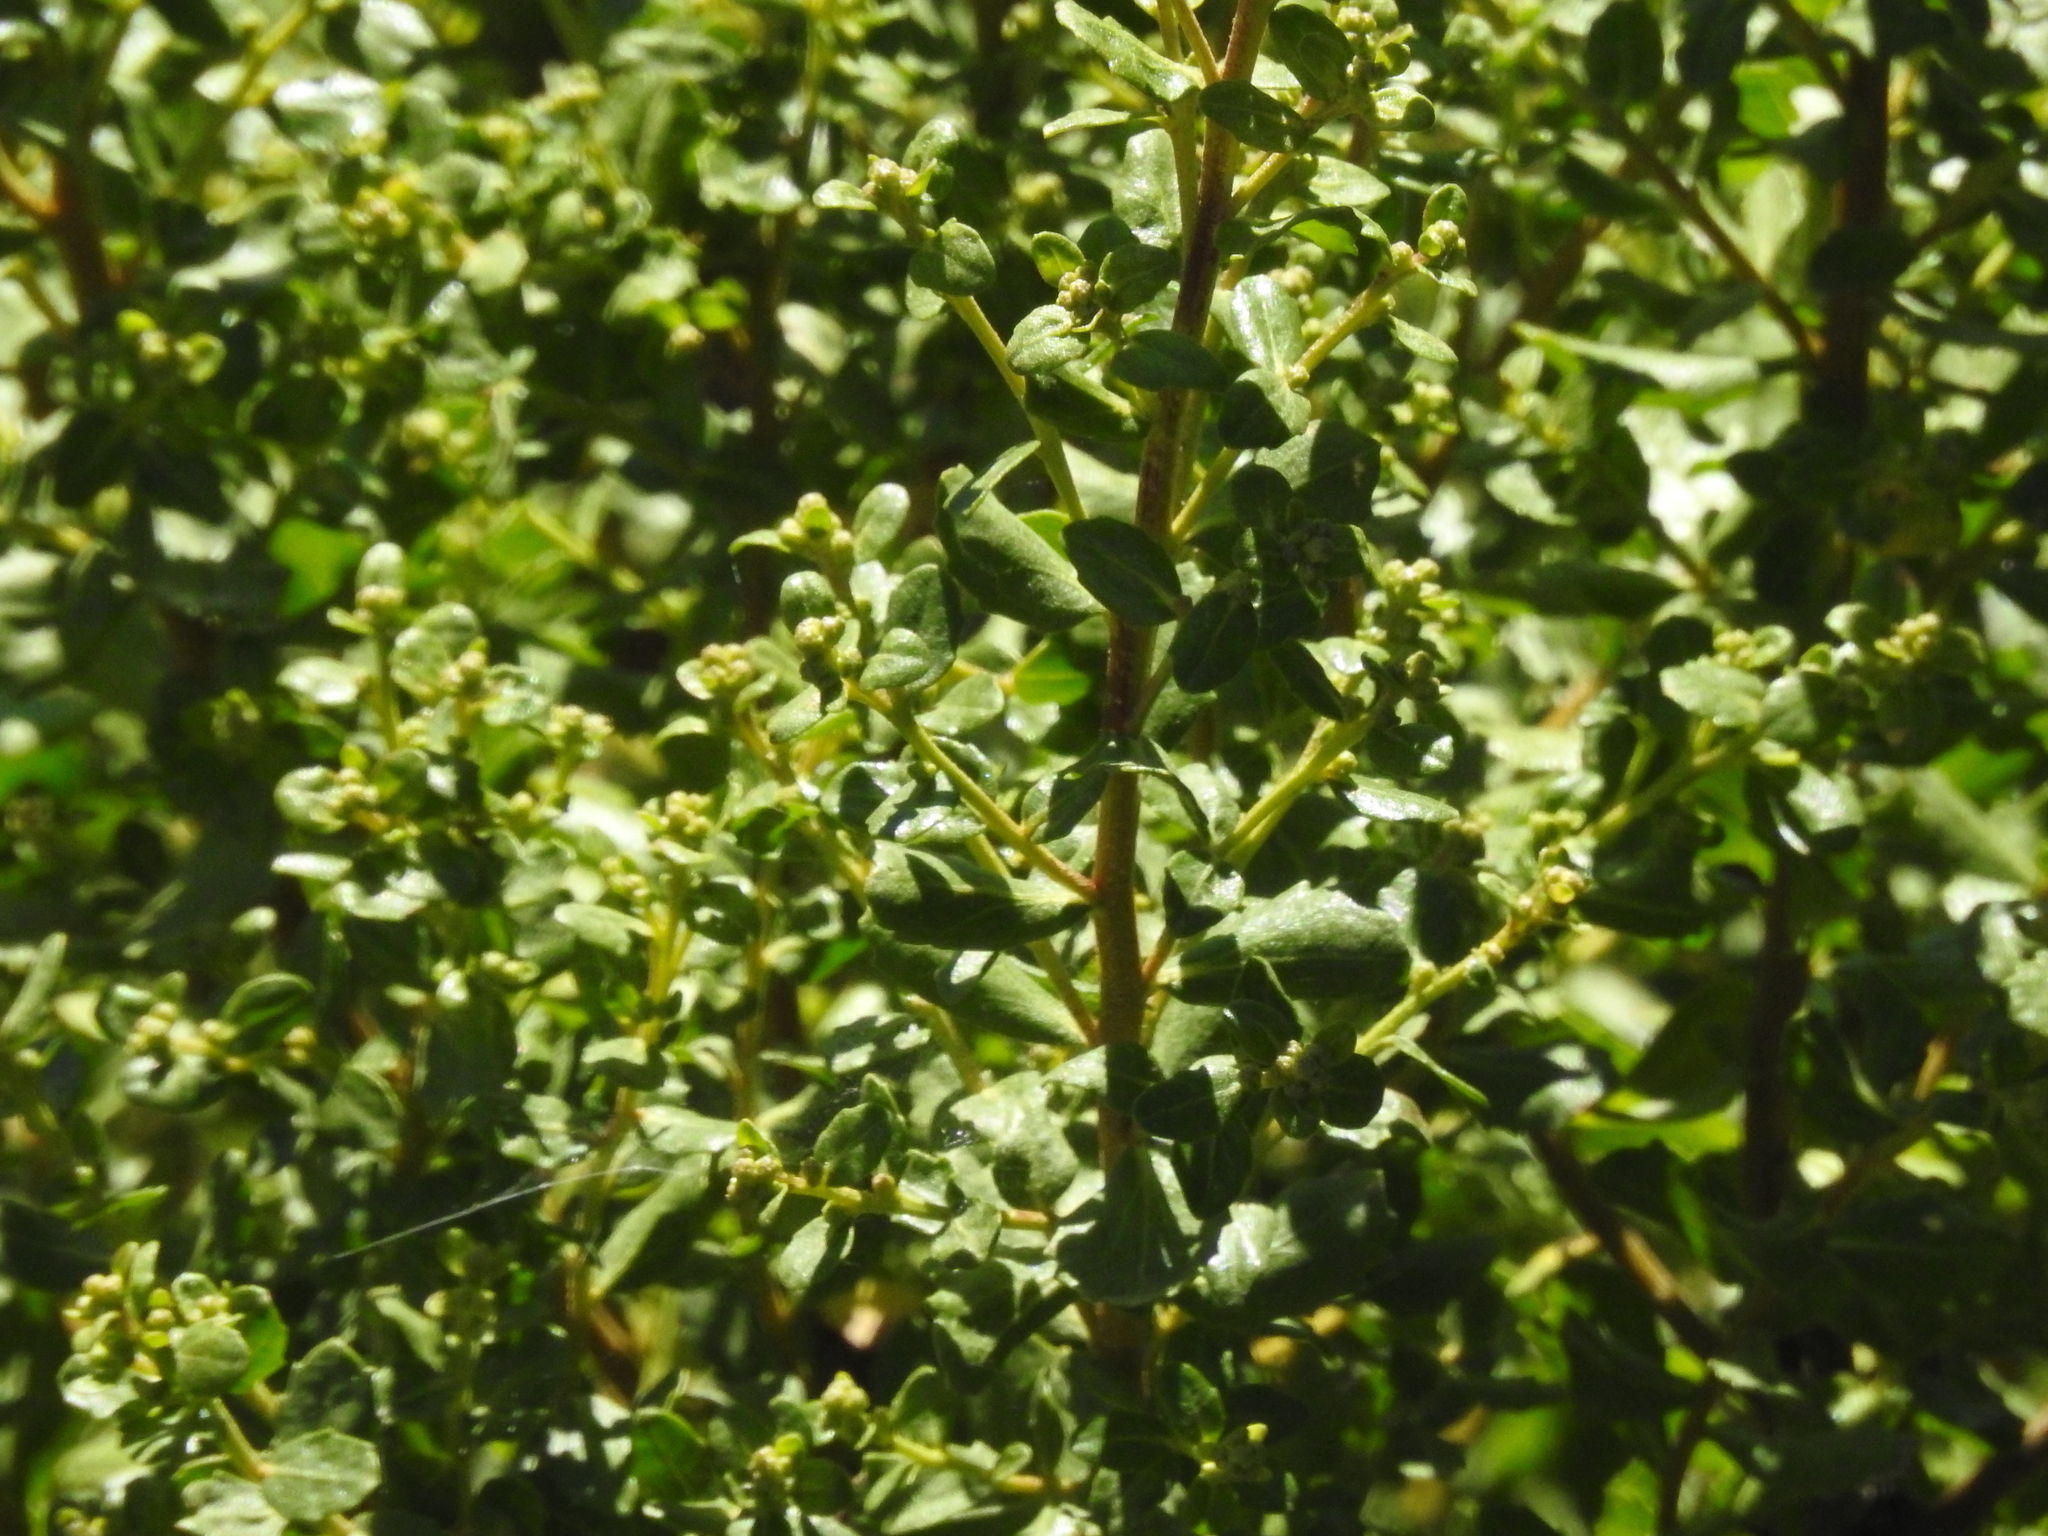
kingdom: Plantae
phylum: Tracheophyta
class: Magnoliopsida
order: Asterales
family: Asteraceae
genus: Baccharis
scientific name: Baccharis pilularis
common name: Coyotebrush
